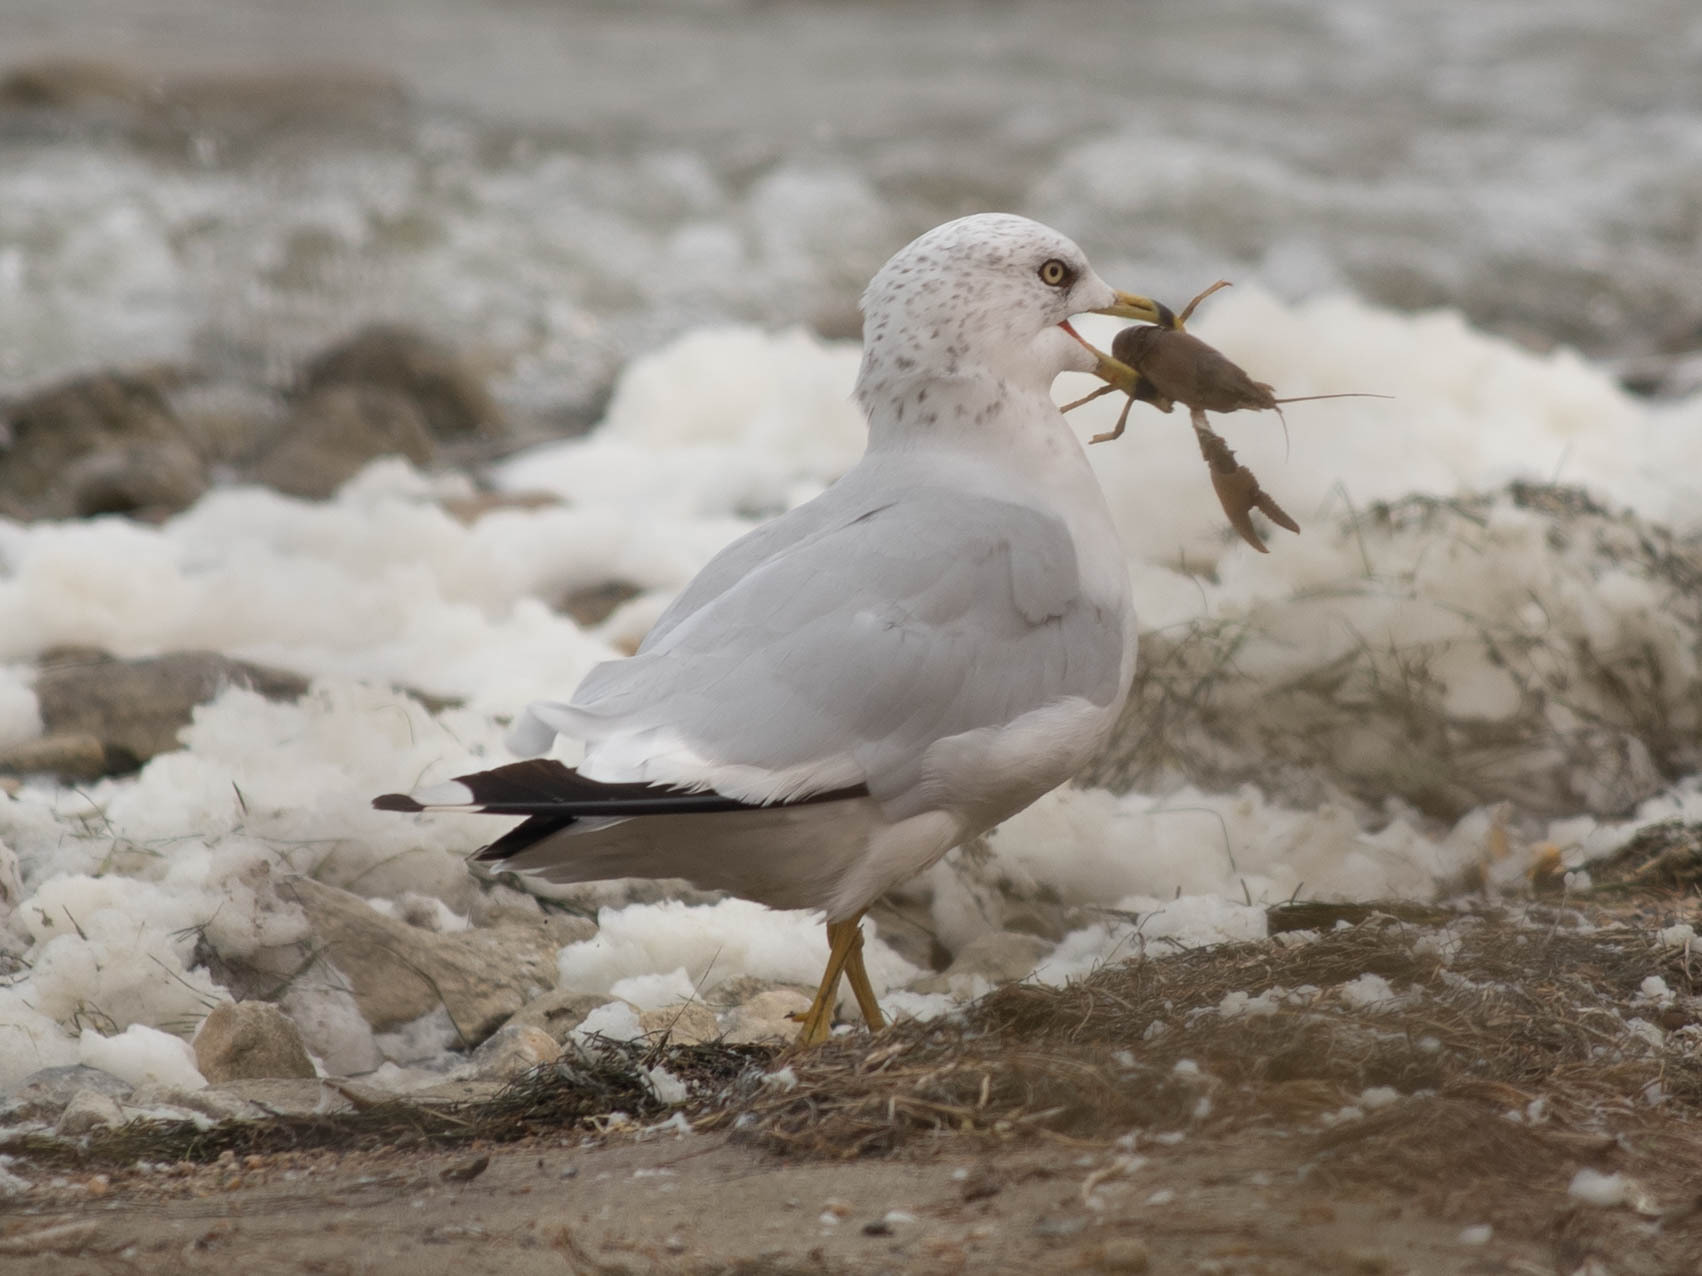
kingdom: Animalia
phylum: Chordata
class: Aves
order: Charadriiformes
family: Laridae
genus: Larus
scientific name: Larus delawarensis
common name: Ring-billed gull
